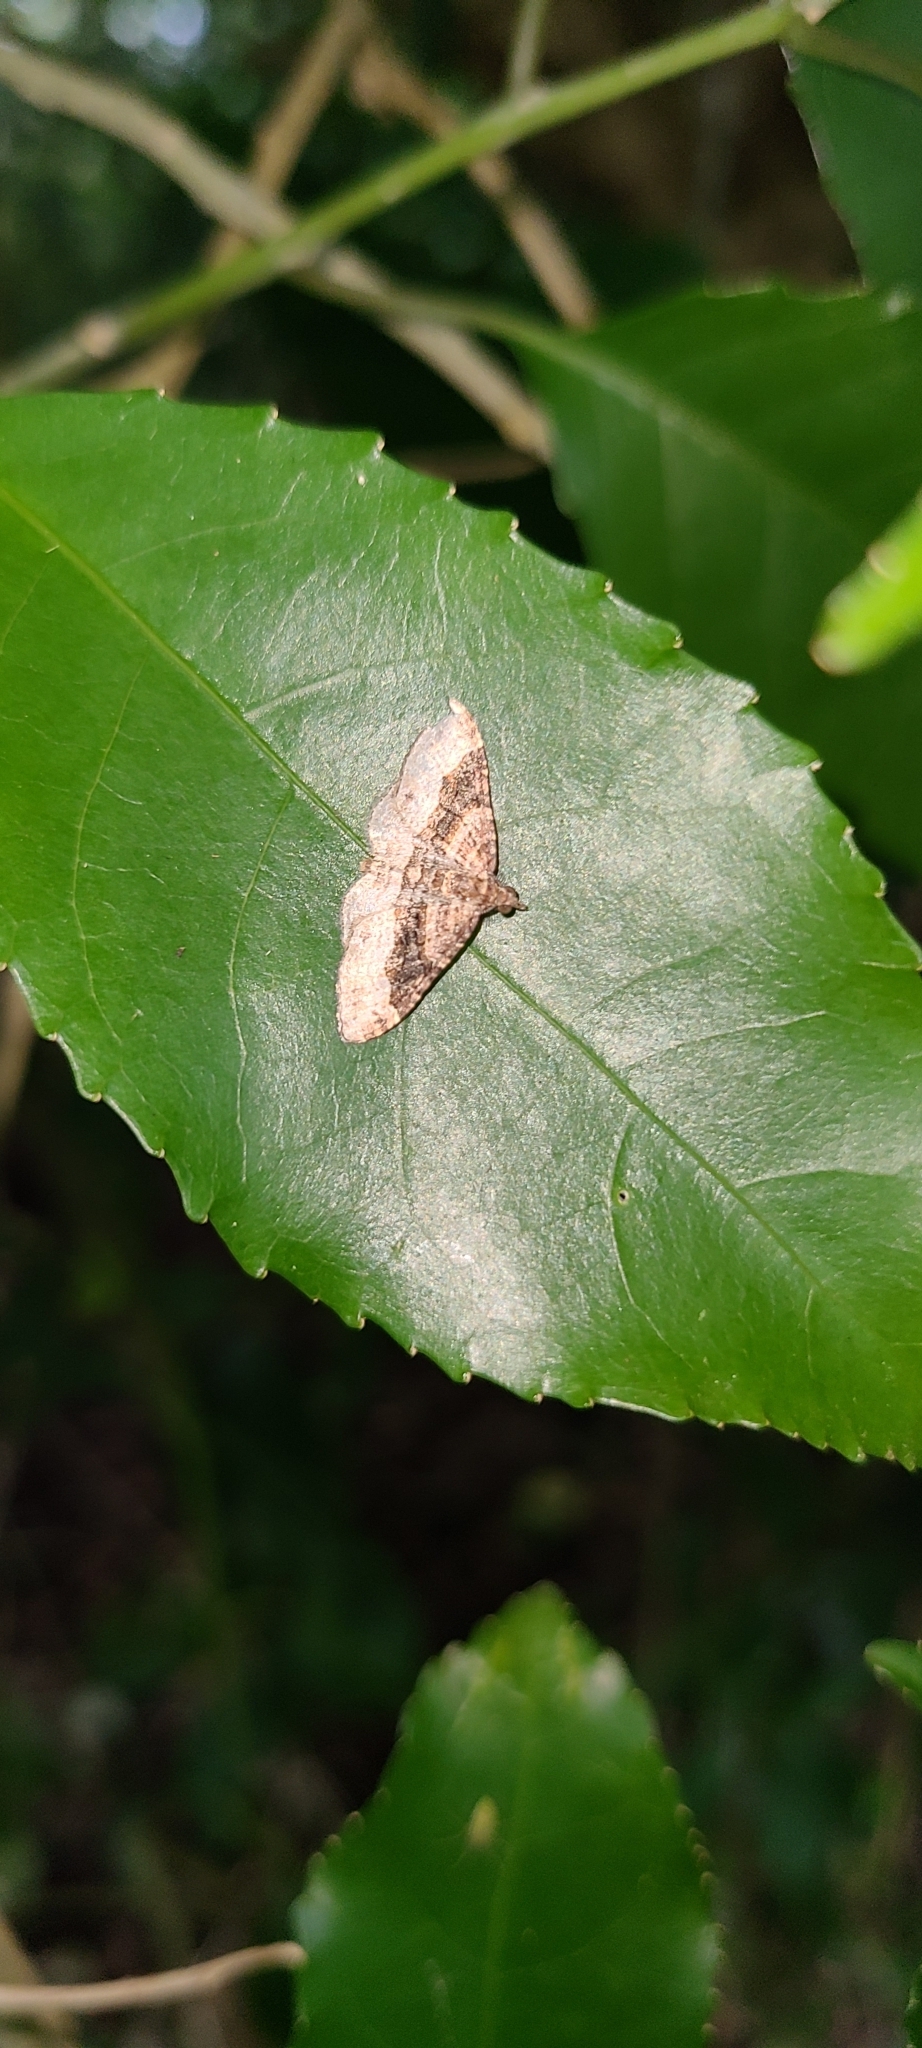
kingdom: Animalia
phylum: Arthropoda
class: Insecta
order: Lepidoptera
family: Geometridae
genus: Epyaxa
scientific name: Epyaxa lucidata
